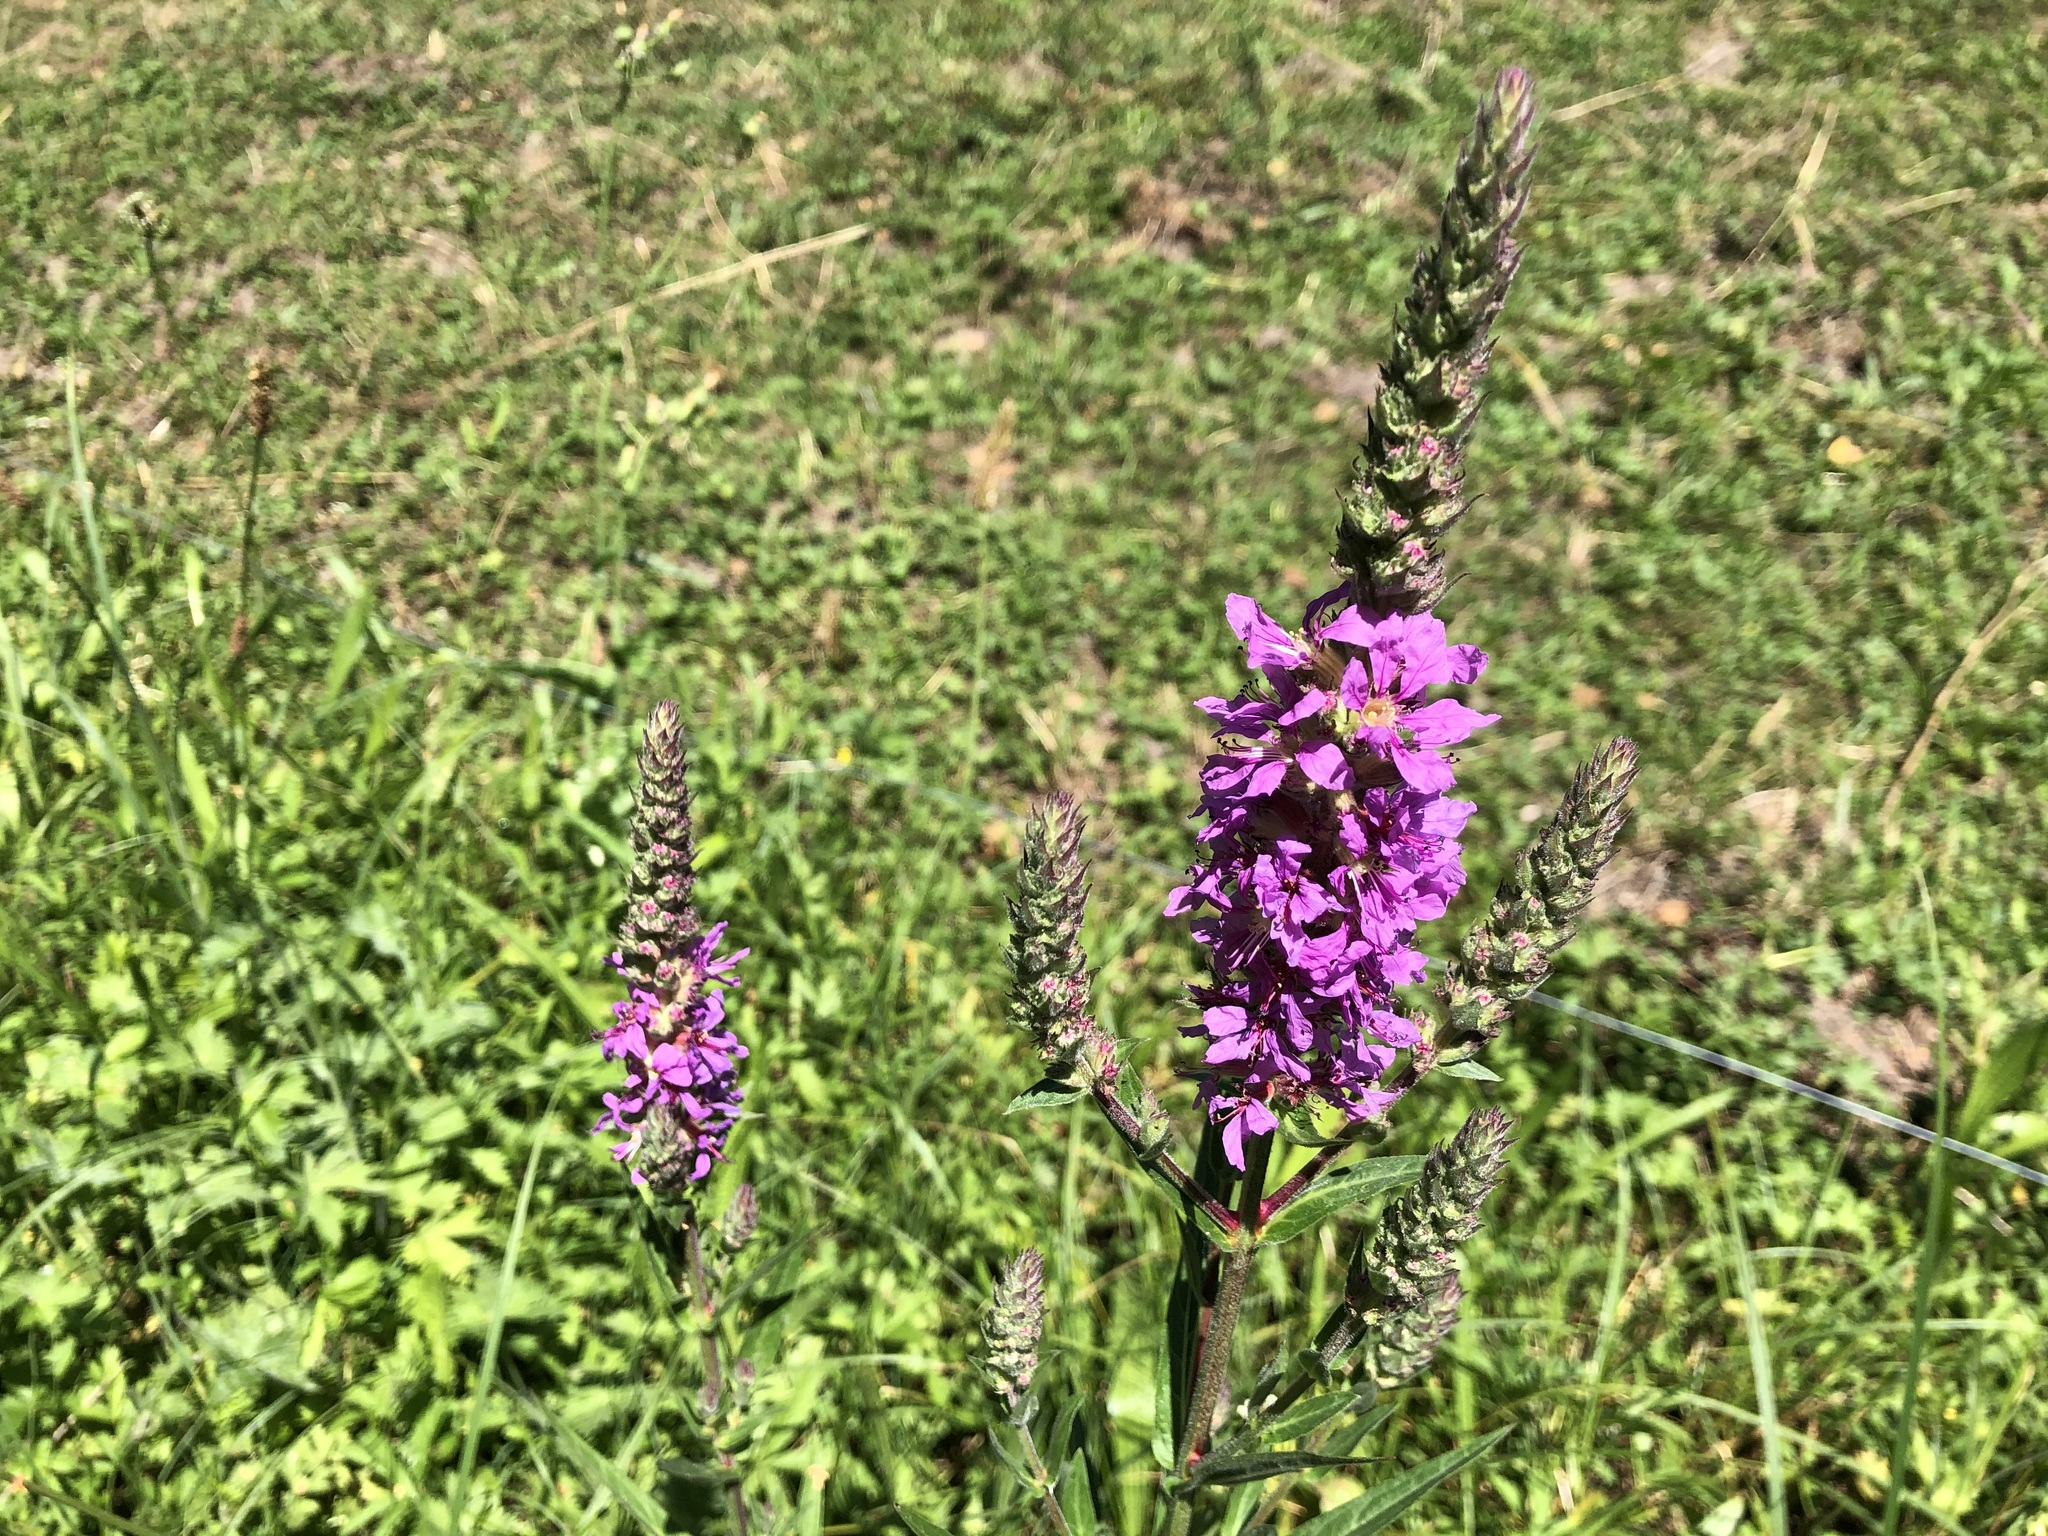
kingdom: Plantae
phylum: Tracheophyta
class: Magnoliopsida
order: Myrtales
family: Lythraceae
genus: Lythrum
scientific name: Lythrum salicaria
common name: Purple loosestrife
